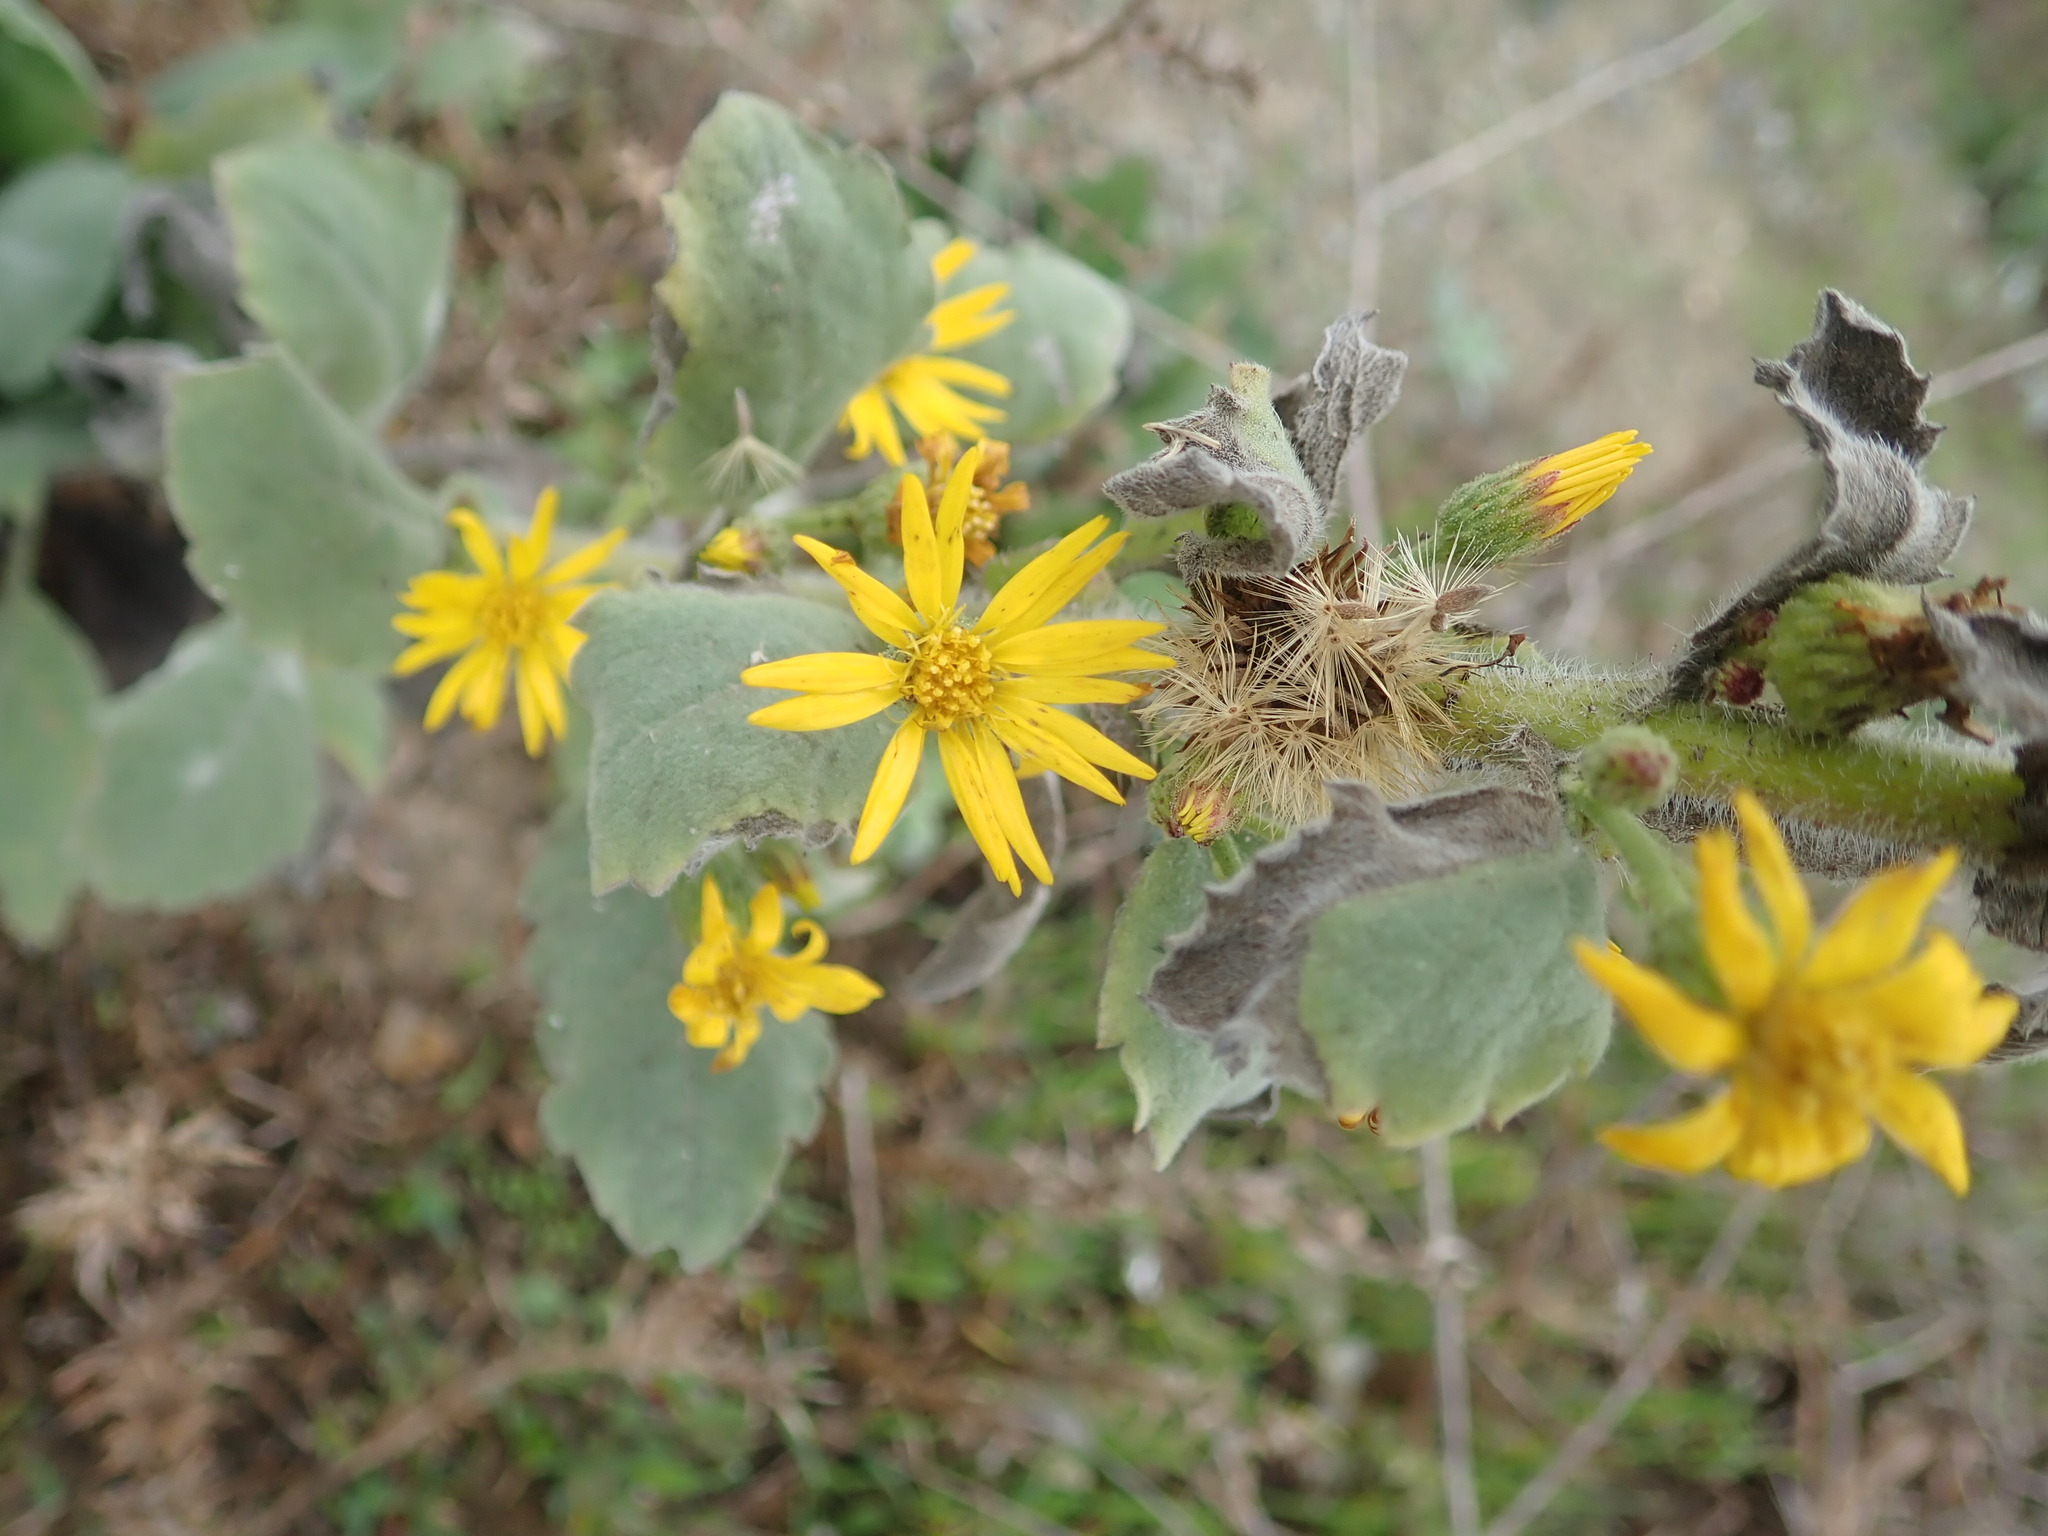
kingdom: Plantae
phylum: Tracheophyta
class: Magnoliopsida
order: Asterales
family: Asteraceae
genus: Heterotheca
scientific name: Heterotheca grandiflora
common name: Telegraphweed
